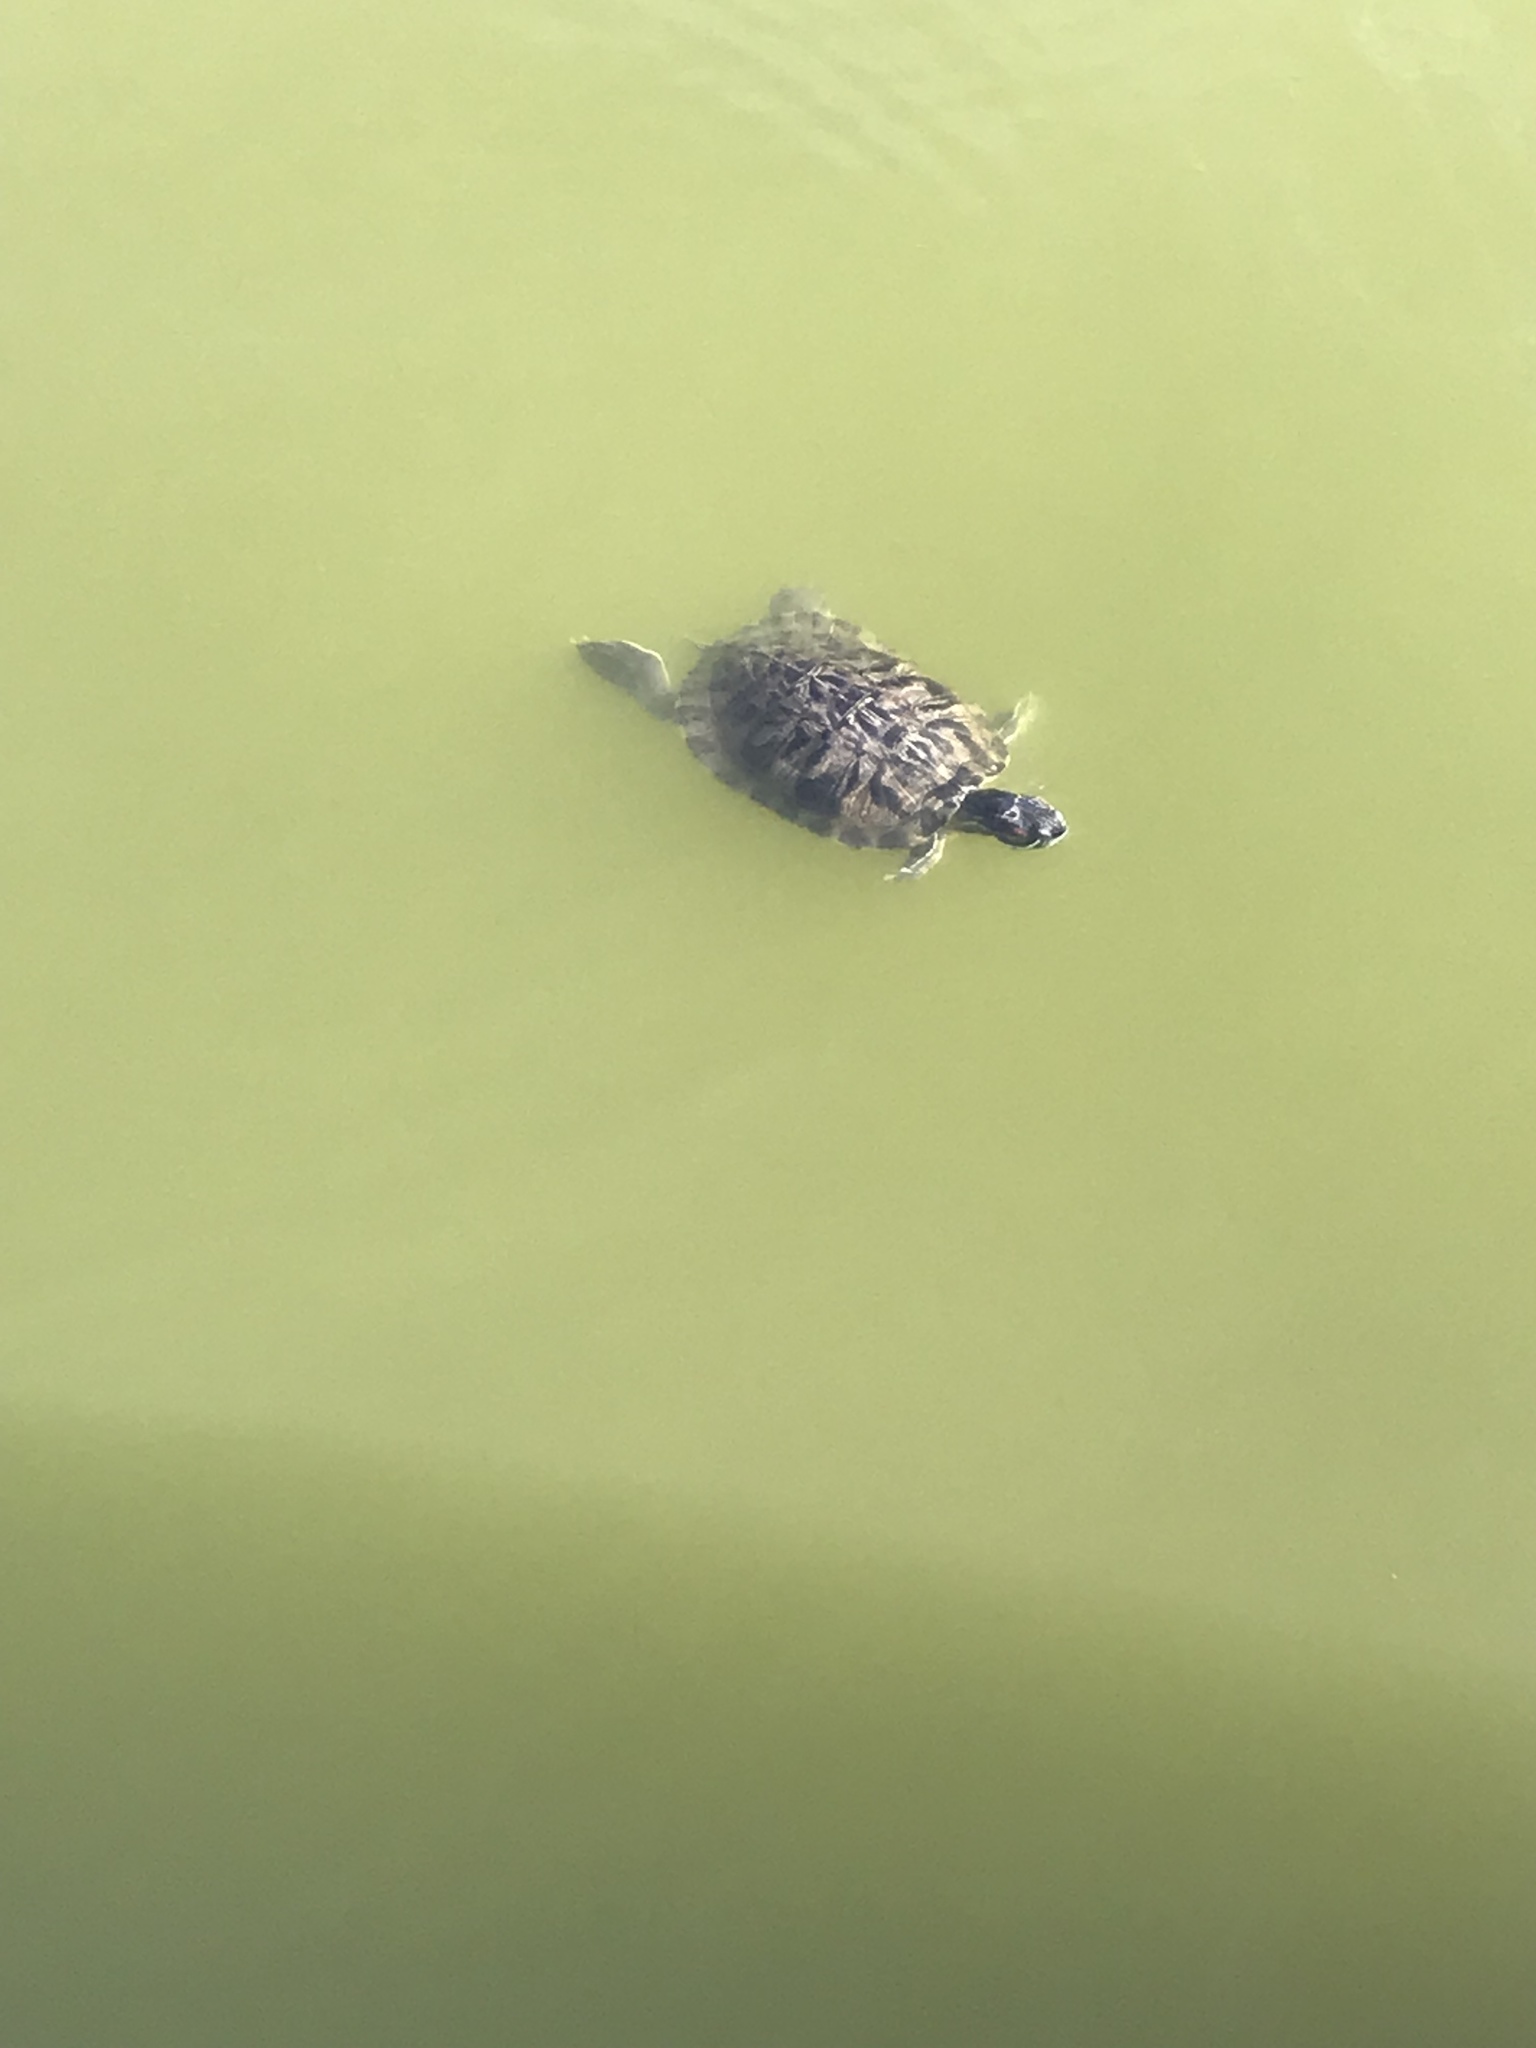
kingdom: Animalia
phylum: Chordata
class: Testudines
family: Emydidae
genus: Trachemys
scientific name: Trachemys scripta
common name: Slider
